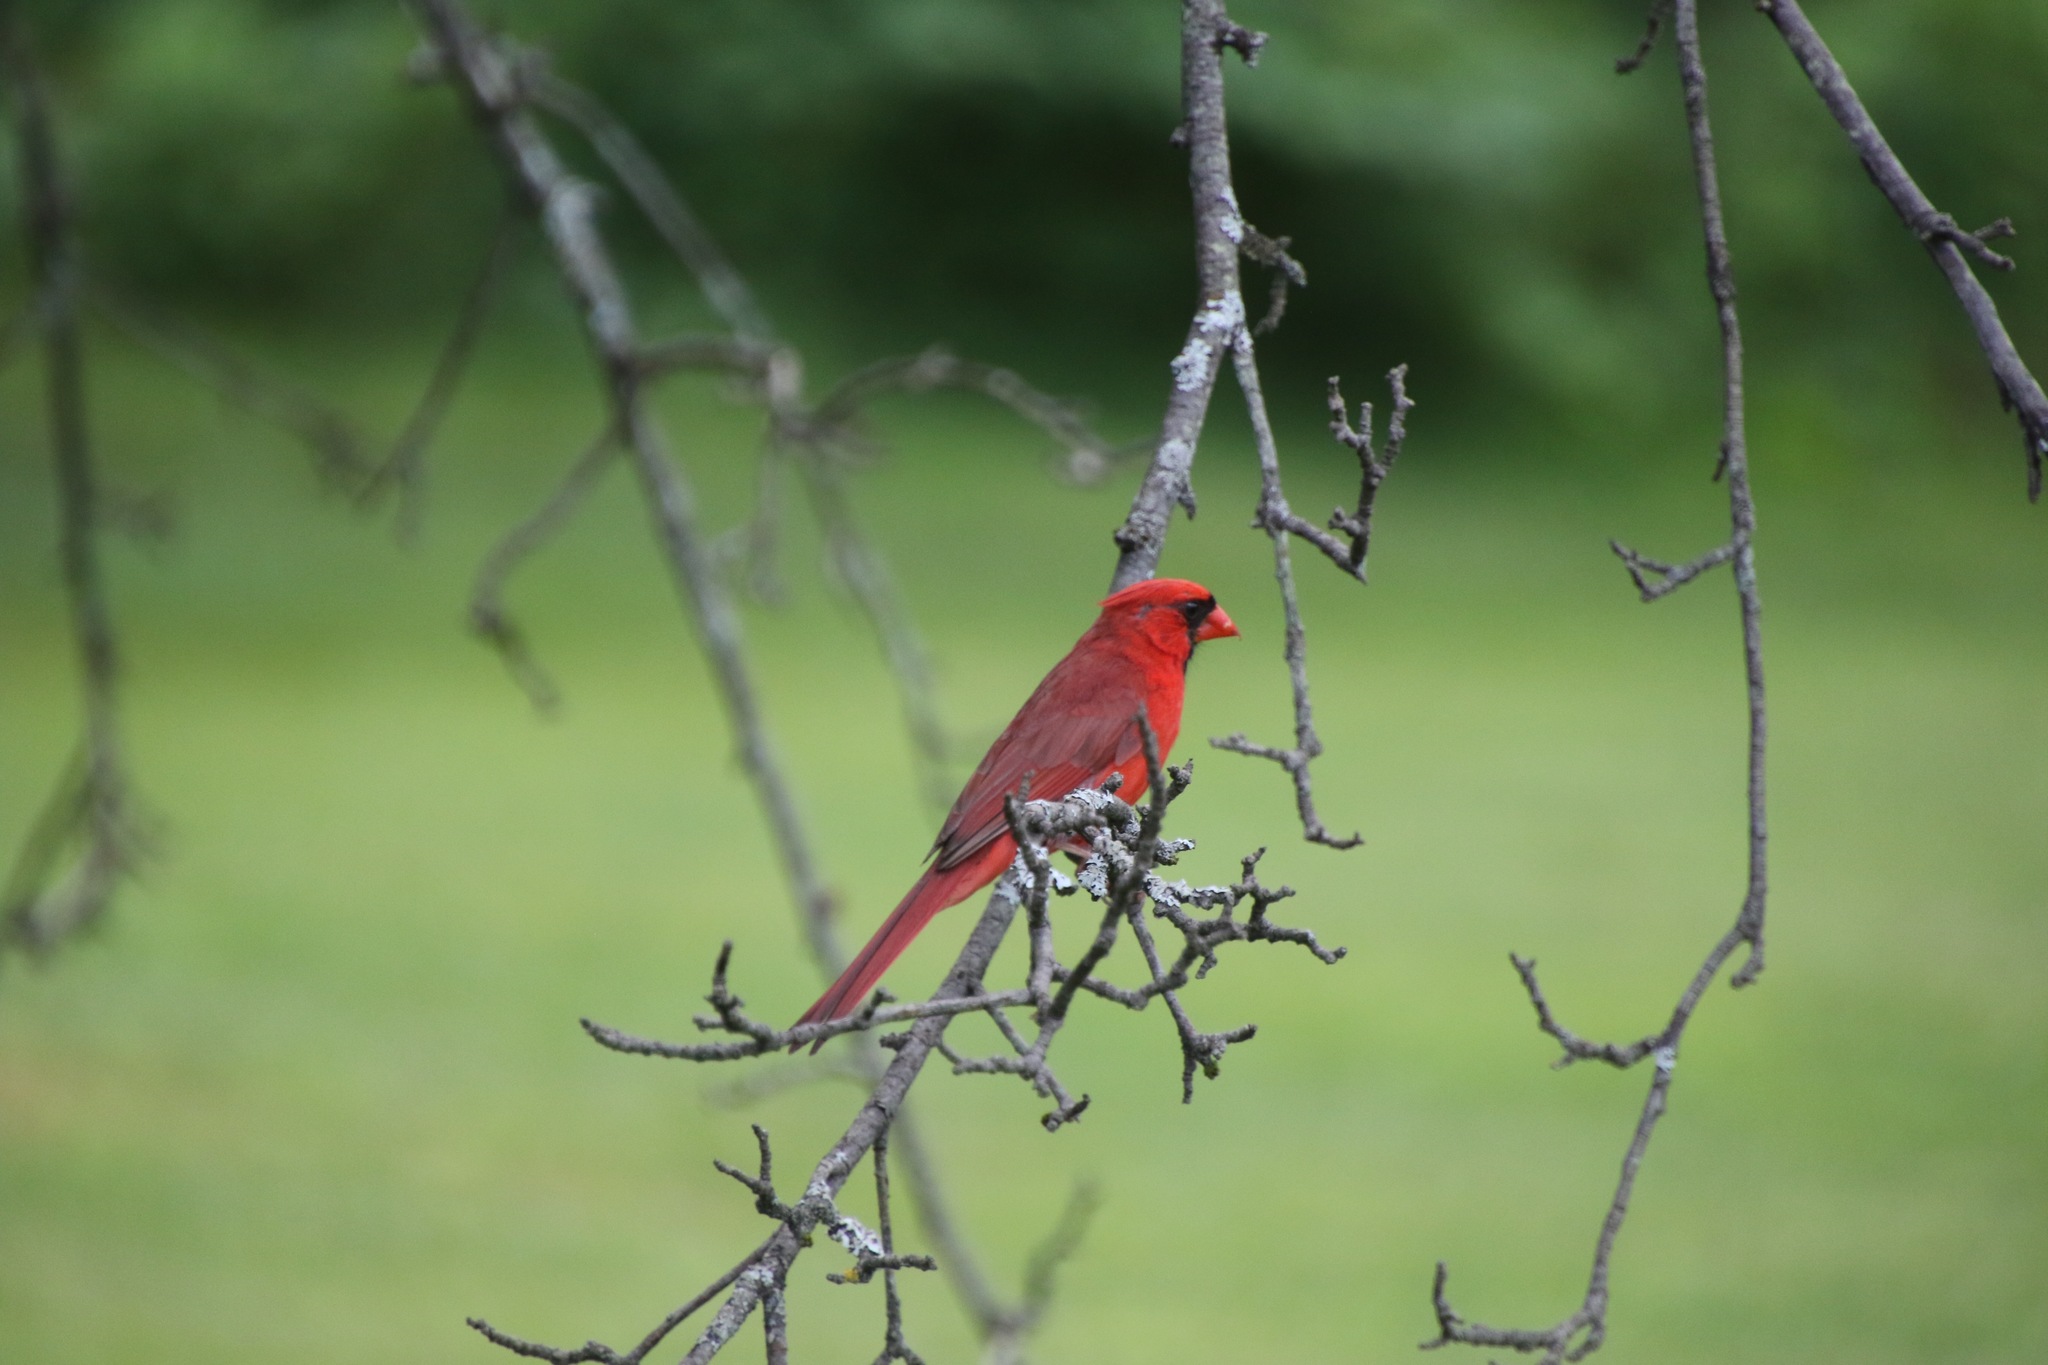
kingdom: Animalia
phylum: Chordata
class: Aves
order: Passeriformes
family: Cardinalidae
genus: Cardinalis
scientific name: Cardinalis cardinalis
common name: Northern cardinal
